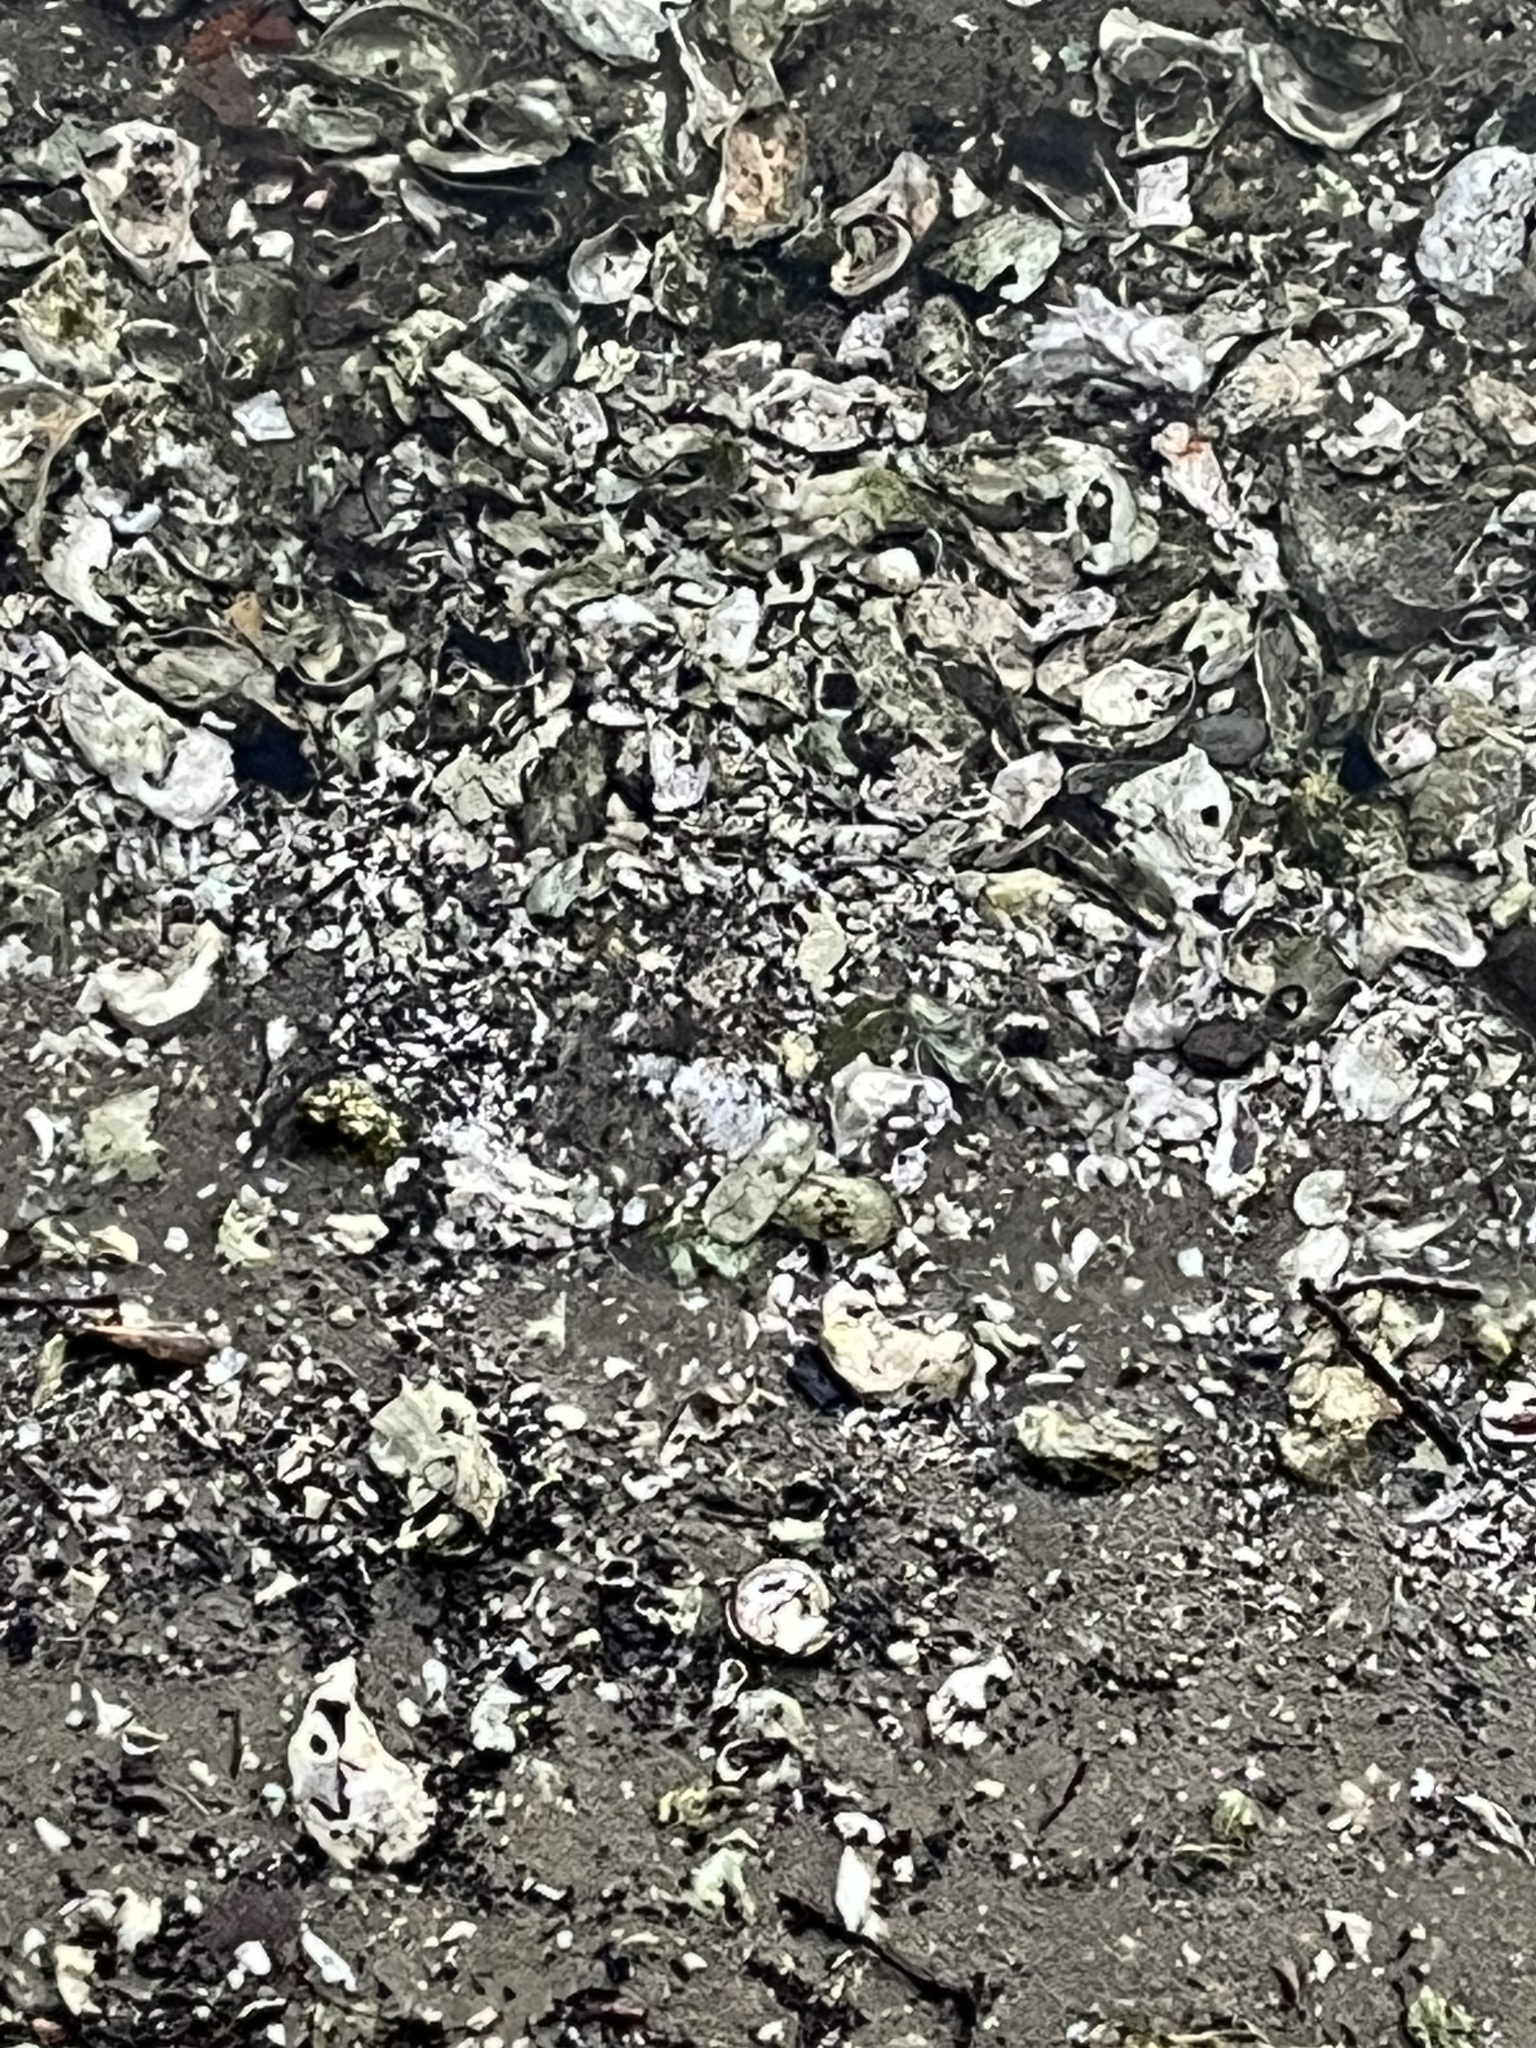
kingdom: Animalia
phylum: Mollusca
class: Bivalvia
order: Ostreida
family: Ostreidae
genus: Crassostrea
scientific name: Crassostrea virginica
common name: American oyster
